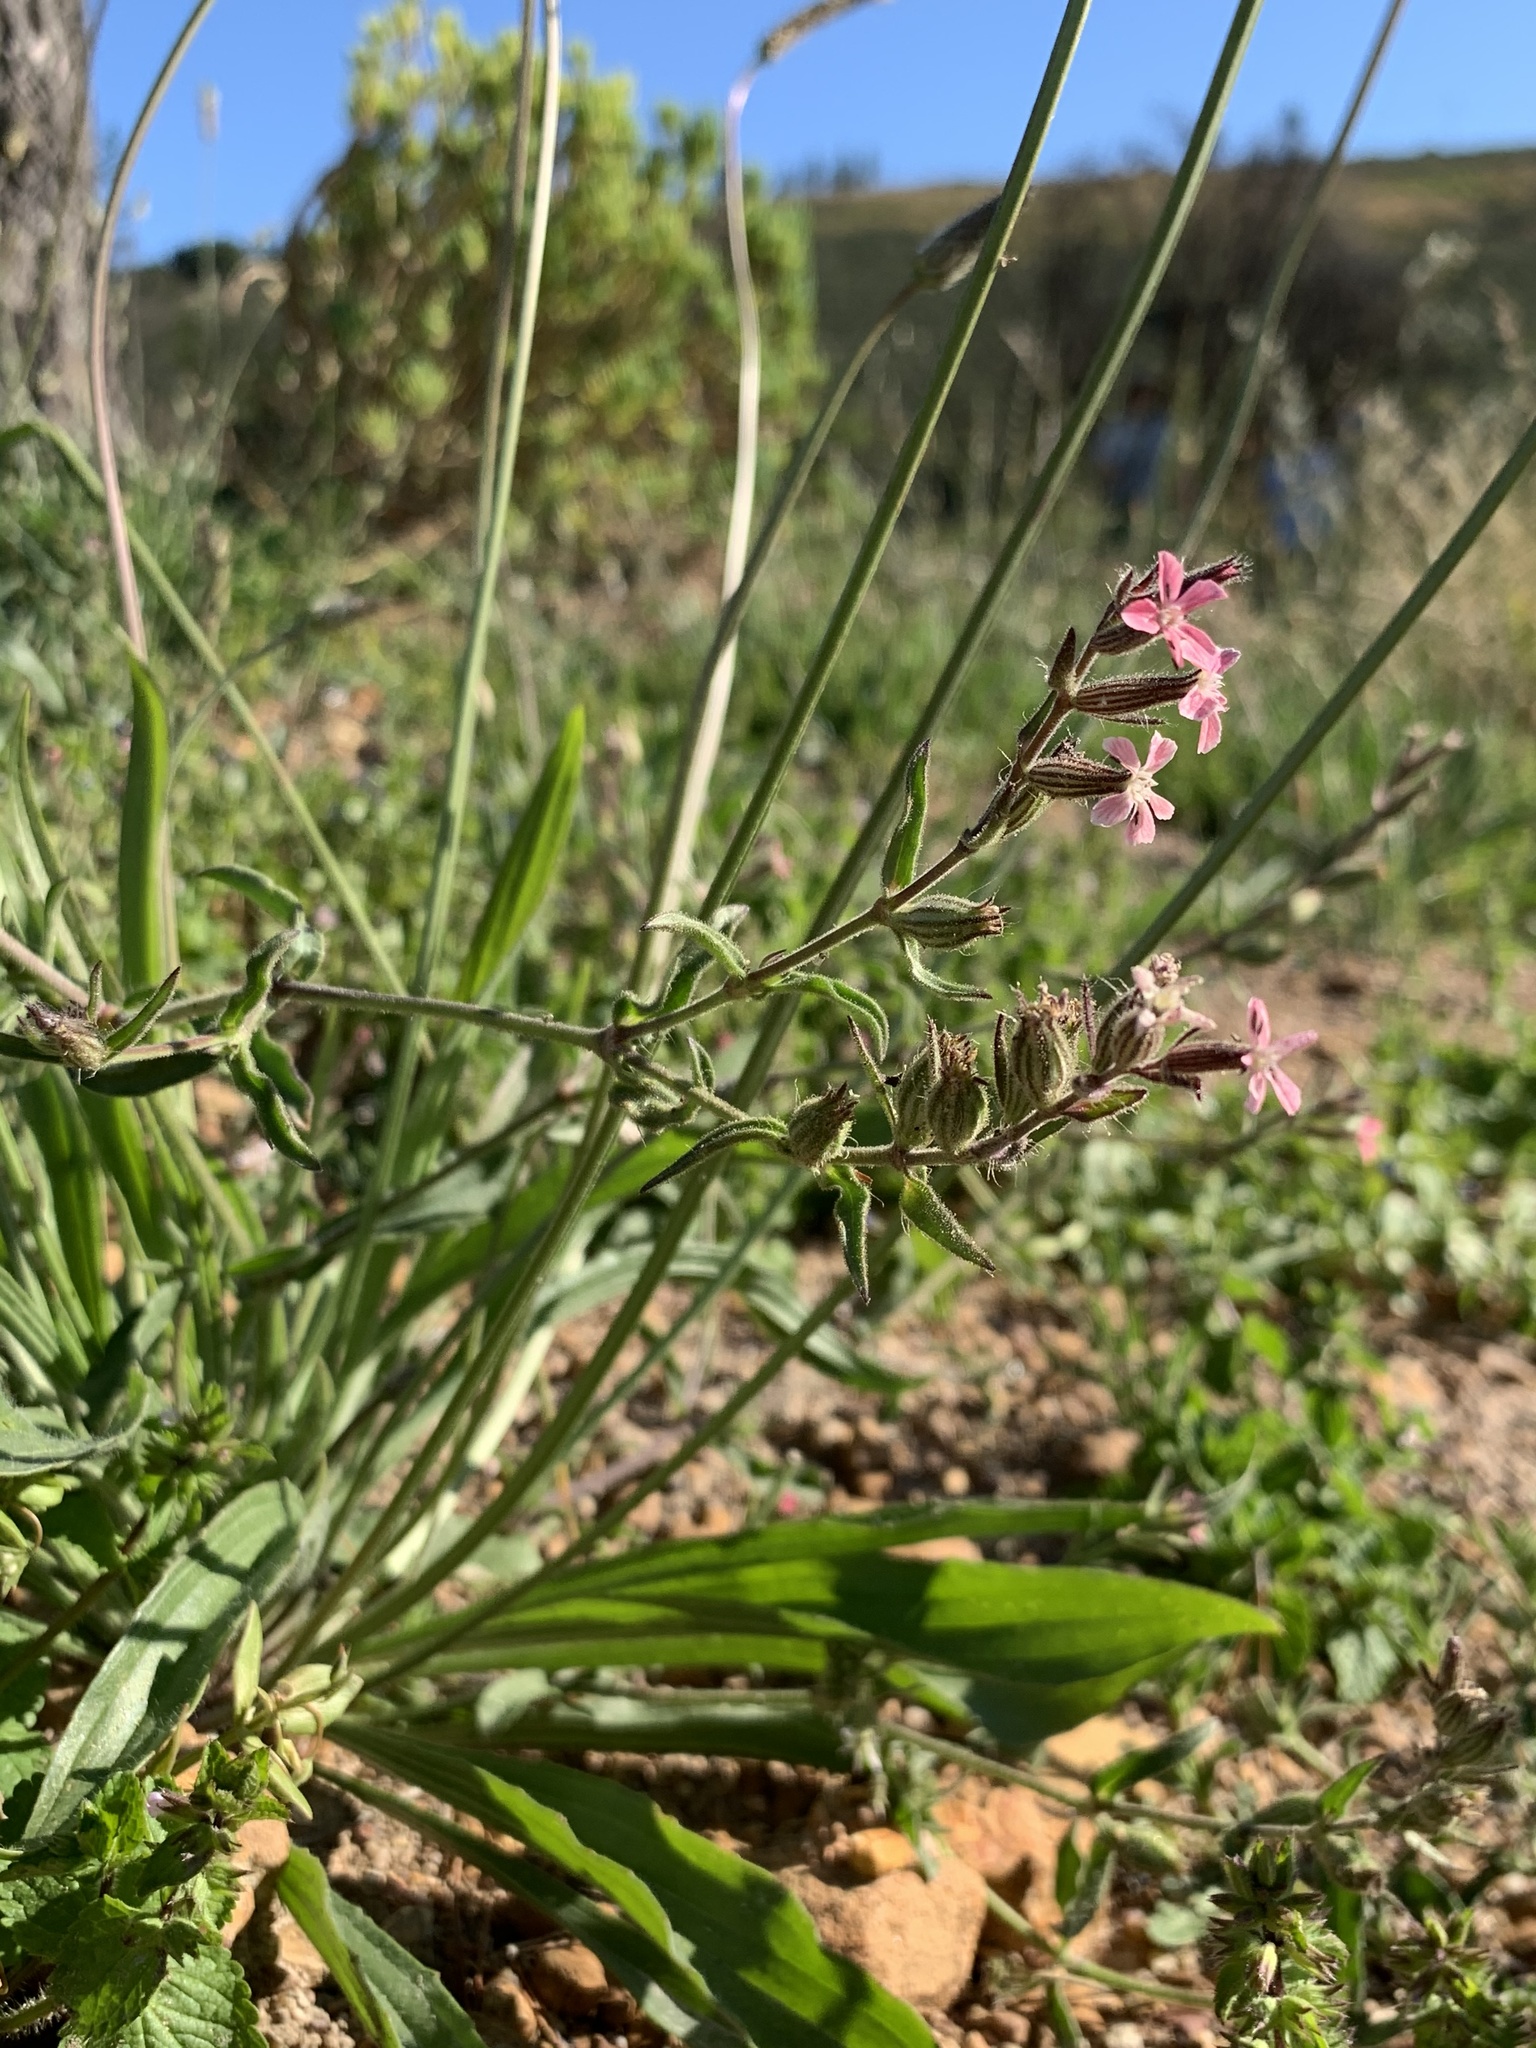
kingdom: Plantae
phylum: Tracheophyta
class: Magnoliopsida
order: Caryophyllales
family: Caryophyllaceae
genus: Silene
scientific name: Silene gallica
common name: Small-flowered catchfly
